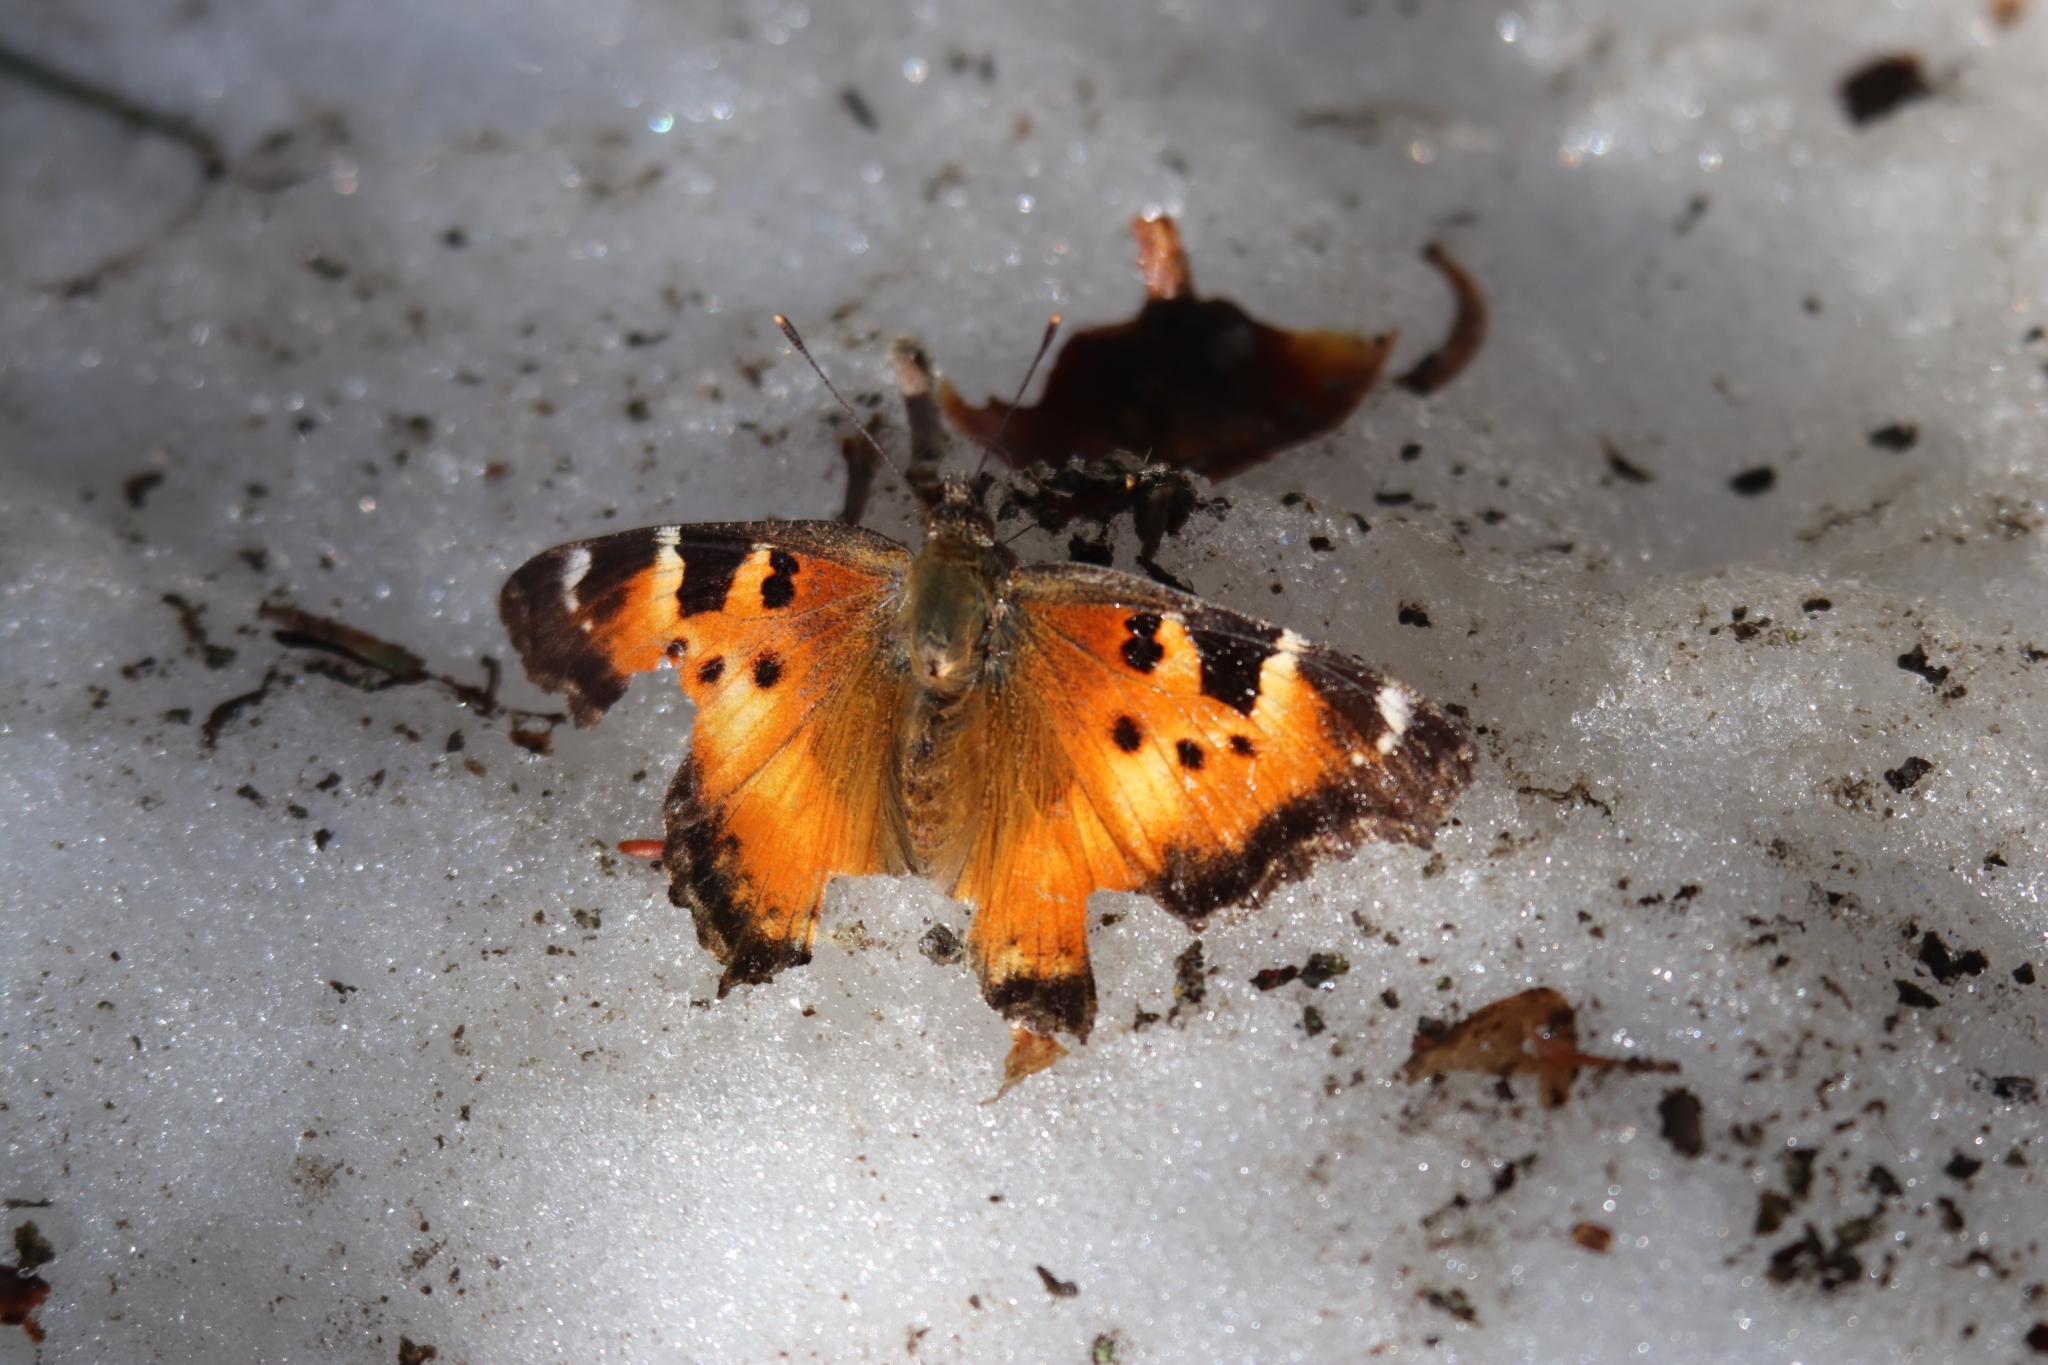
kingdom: Animalia
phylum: Arthropoda
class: Insecta
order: Lepidoptera
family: Nymphalidae
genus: Nymphalis
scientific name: Nymphalis californica
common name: California tortoiseshell
